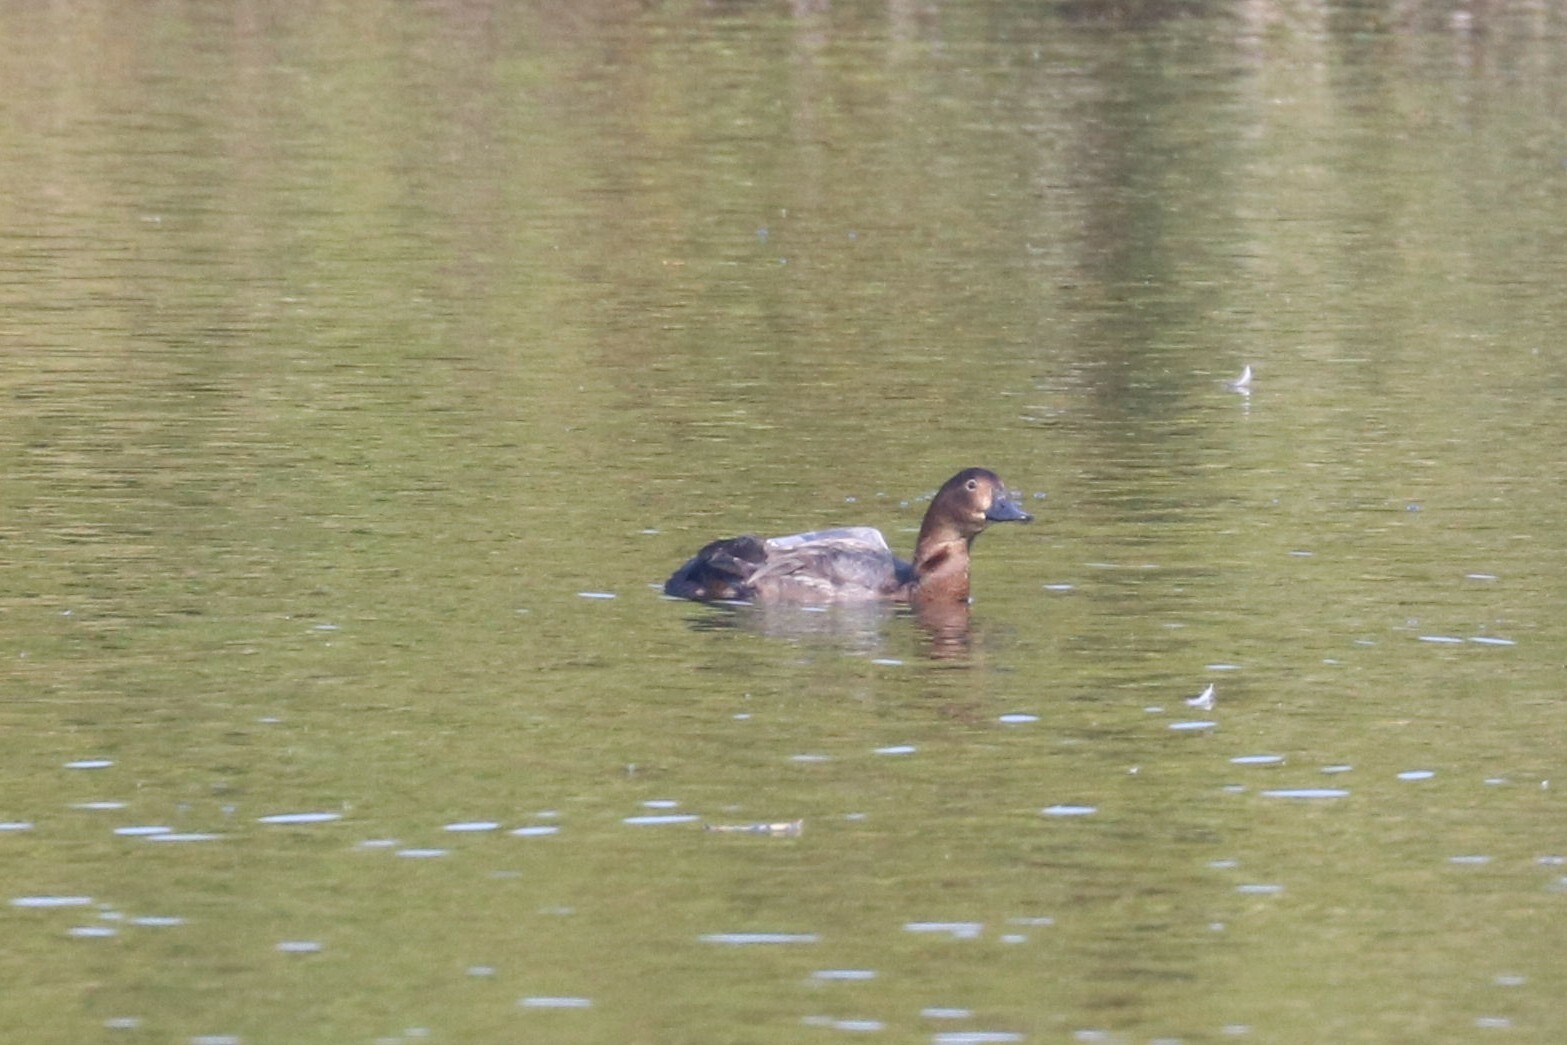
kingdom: Animalia
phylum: Chordata
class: Aves
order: Anseriformes
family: Anatidae
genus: Aythya
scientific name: Aythya ferina
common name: Common pochard
